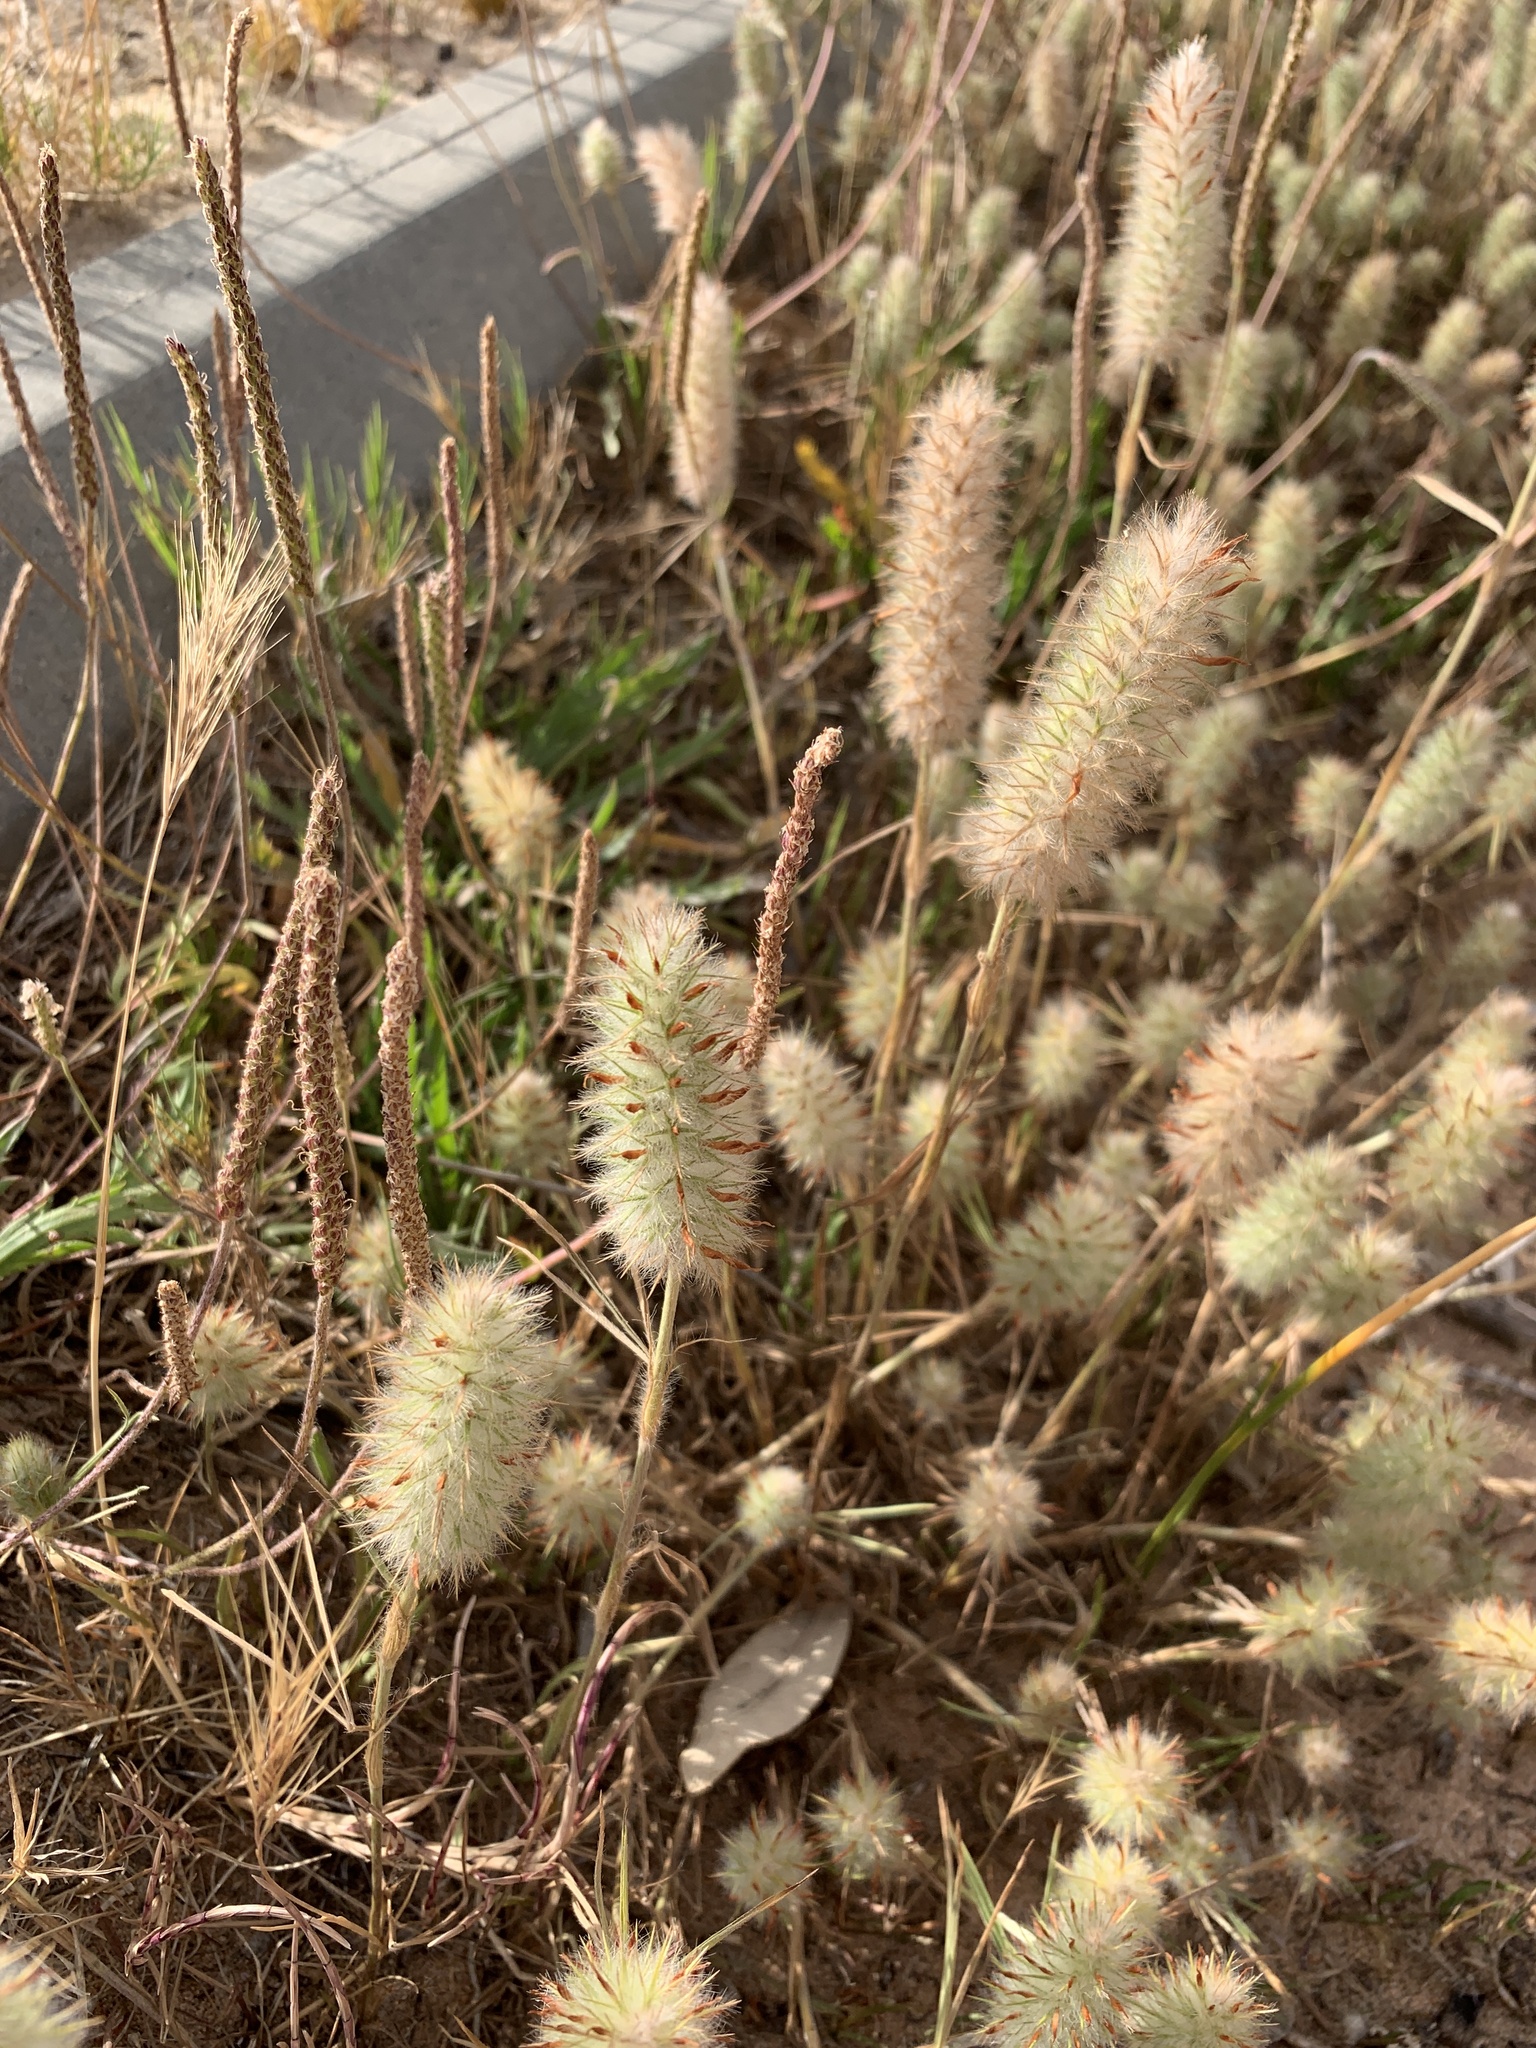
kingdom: Plantae
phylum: Tracheophyta
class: Magnoliopsida
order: Fabales
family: Fabaceae
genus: Trifolium
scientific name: Trifolium angustifolium
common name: Narrow clover
